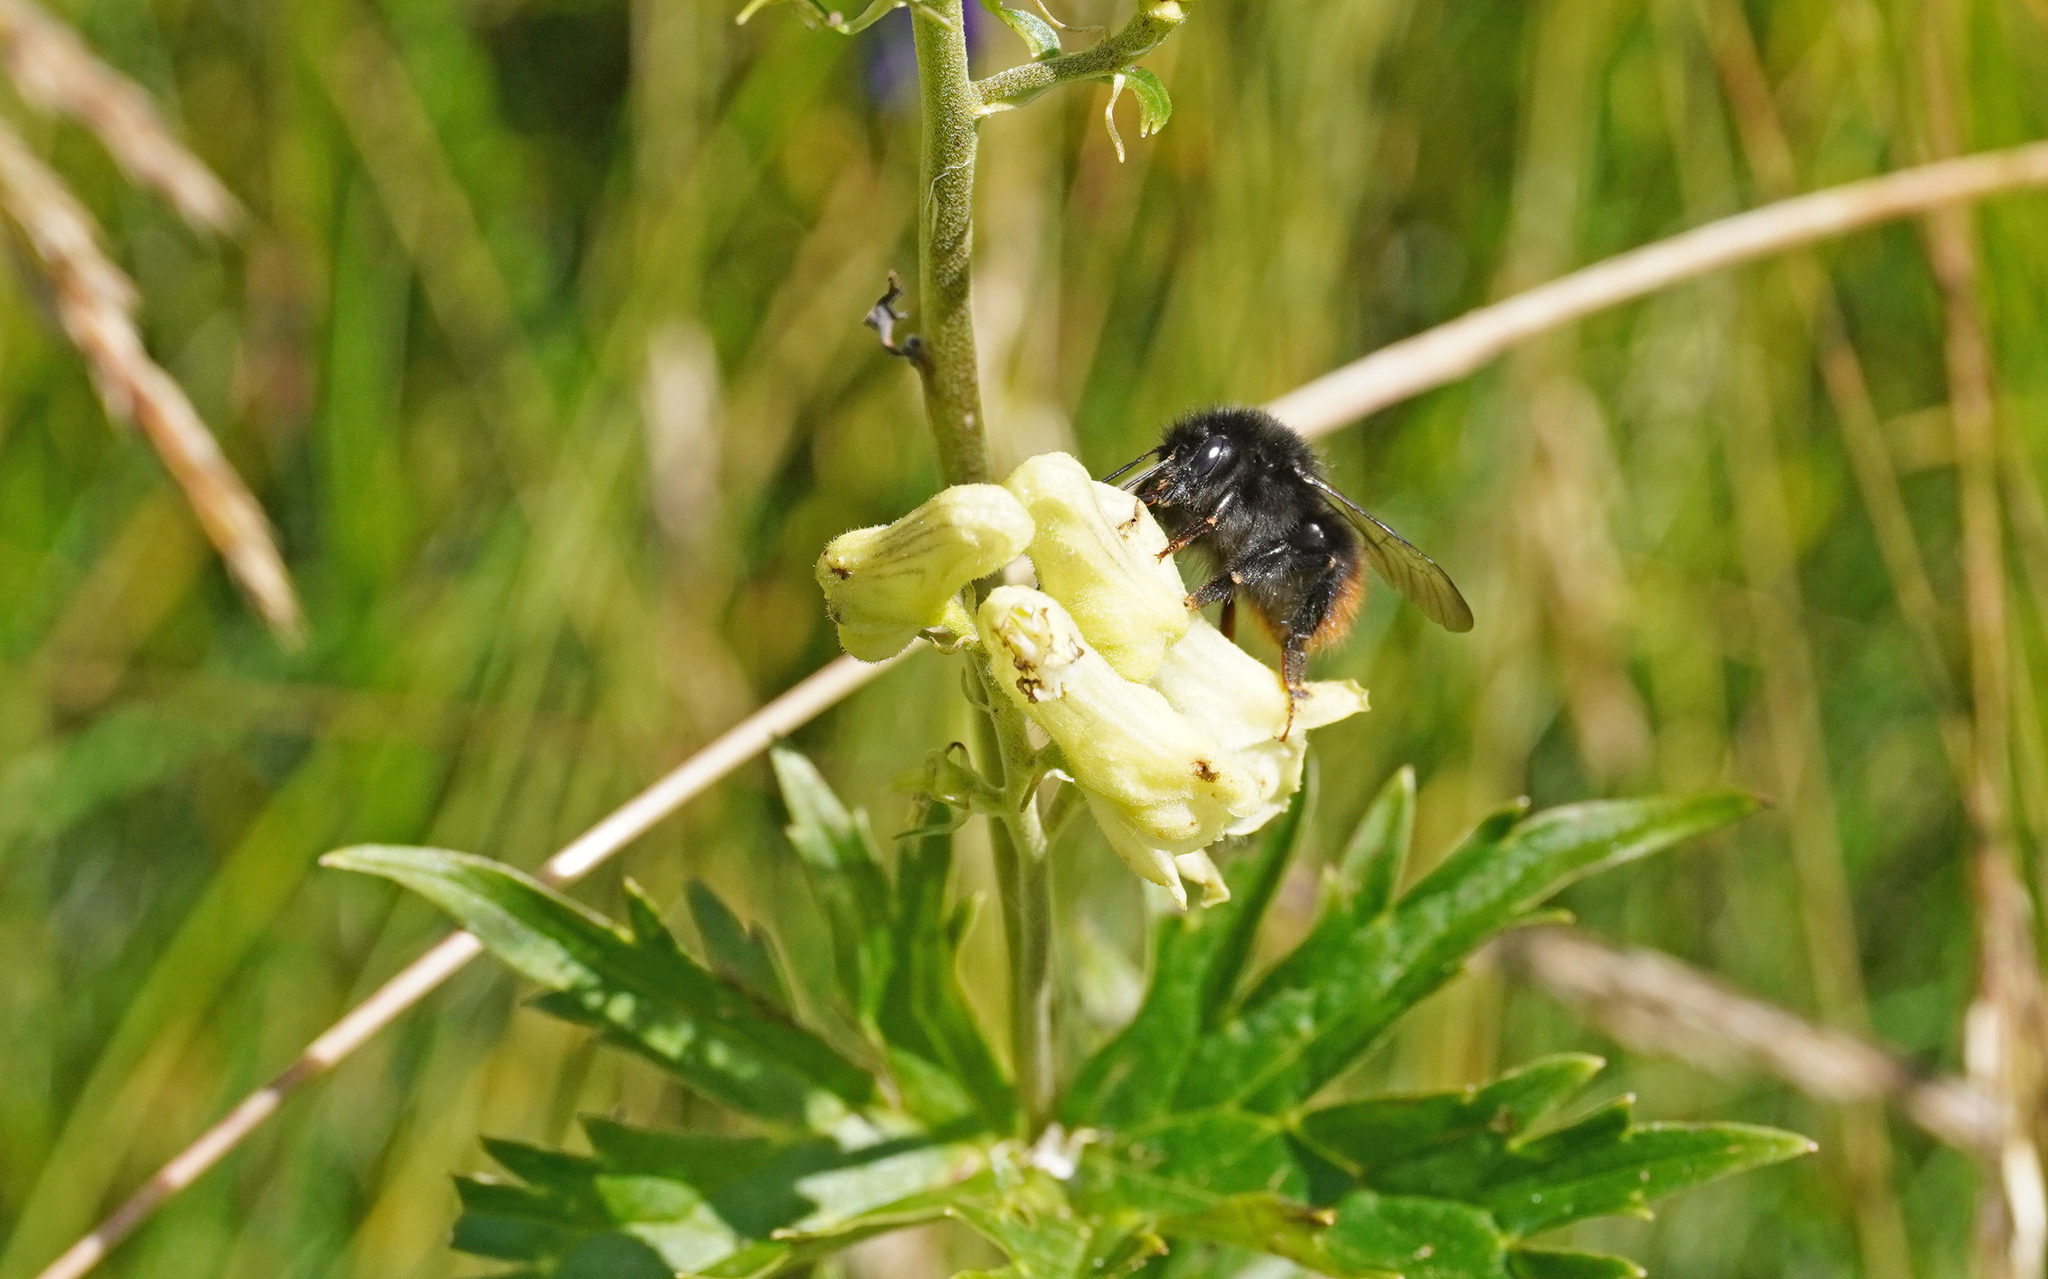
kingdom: Animalia
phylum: Arthropoda
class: Insecta
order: Hymenoptera
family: Apidae
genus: Bombus
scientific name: Bombus wurflenii
